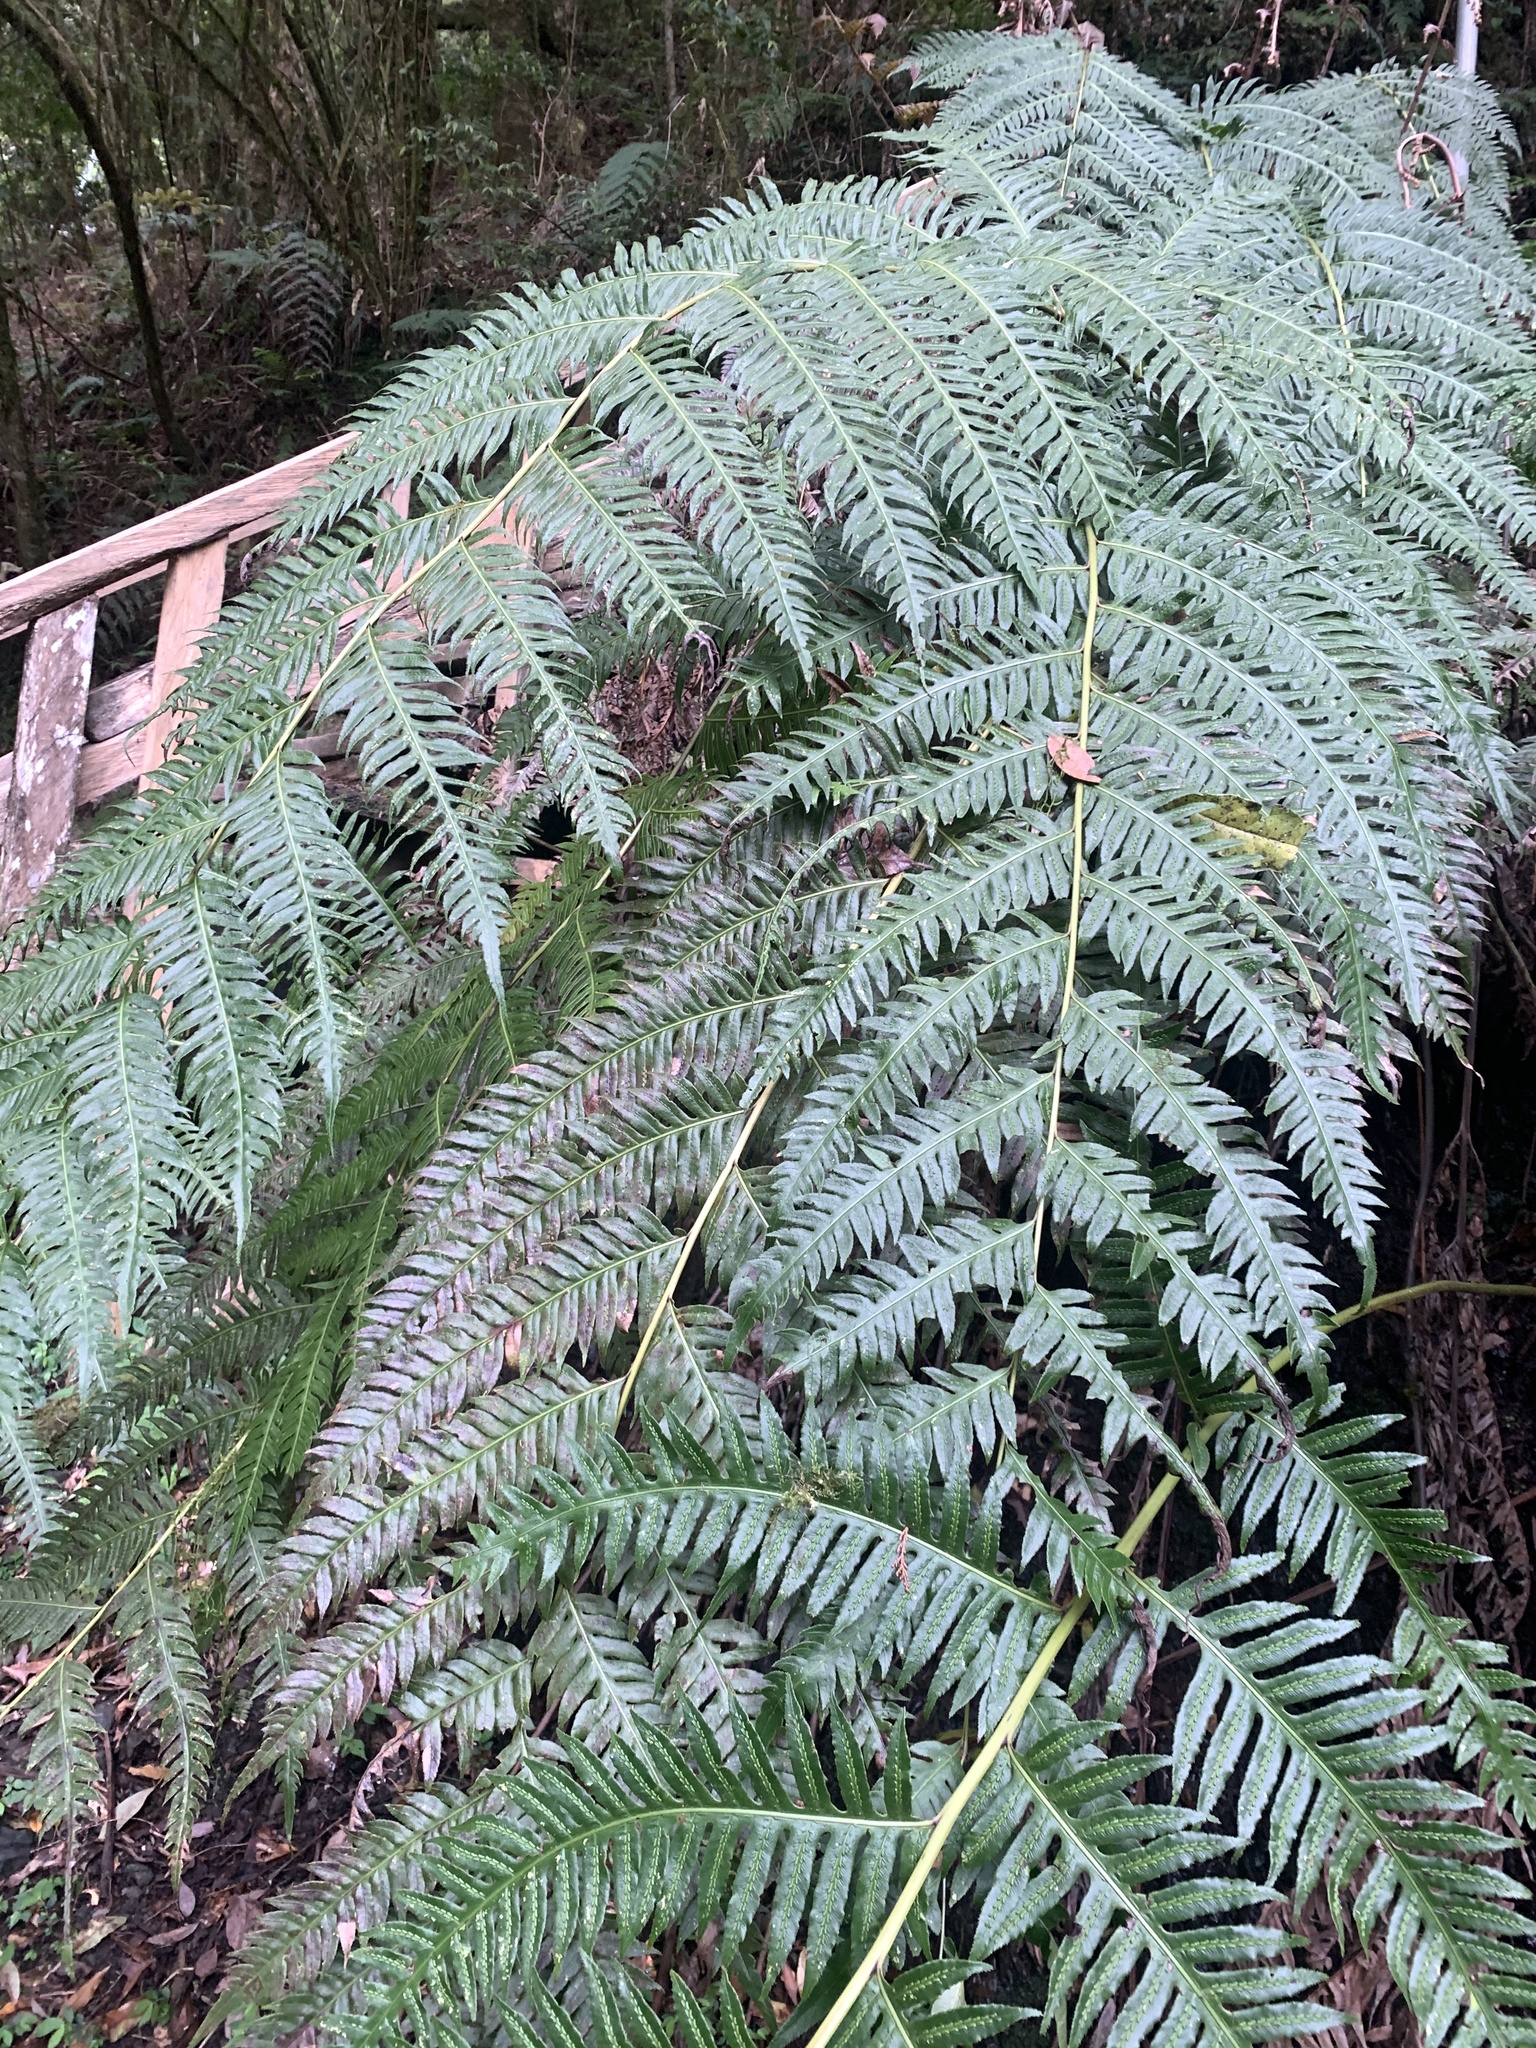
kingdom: Plantae
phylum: Tracheophyta
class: Polypodiopsida
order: Polypodiales
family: Blechnaceae
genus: Woodwardia
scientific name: Woodwardia unigemmata
